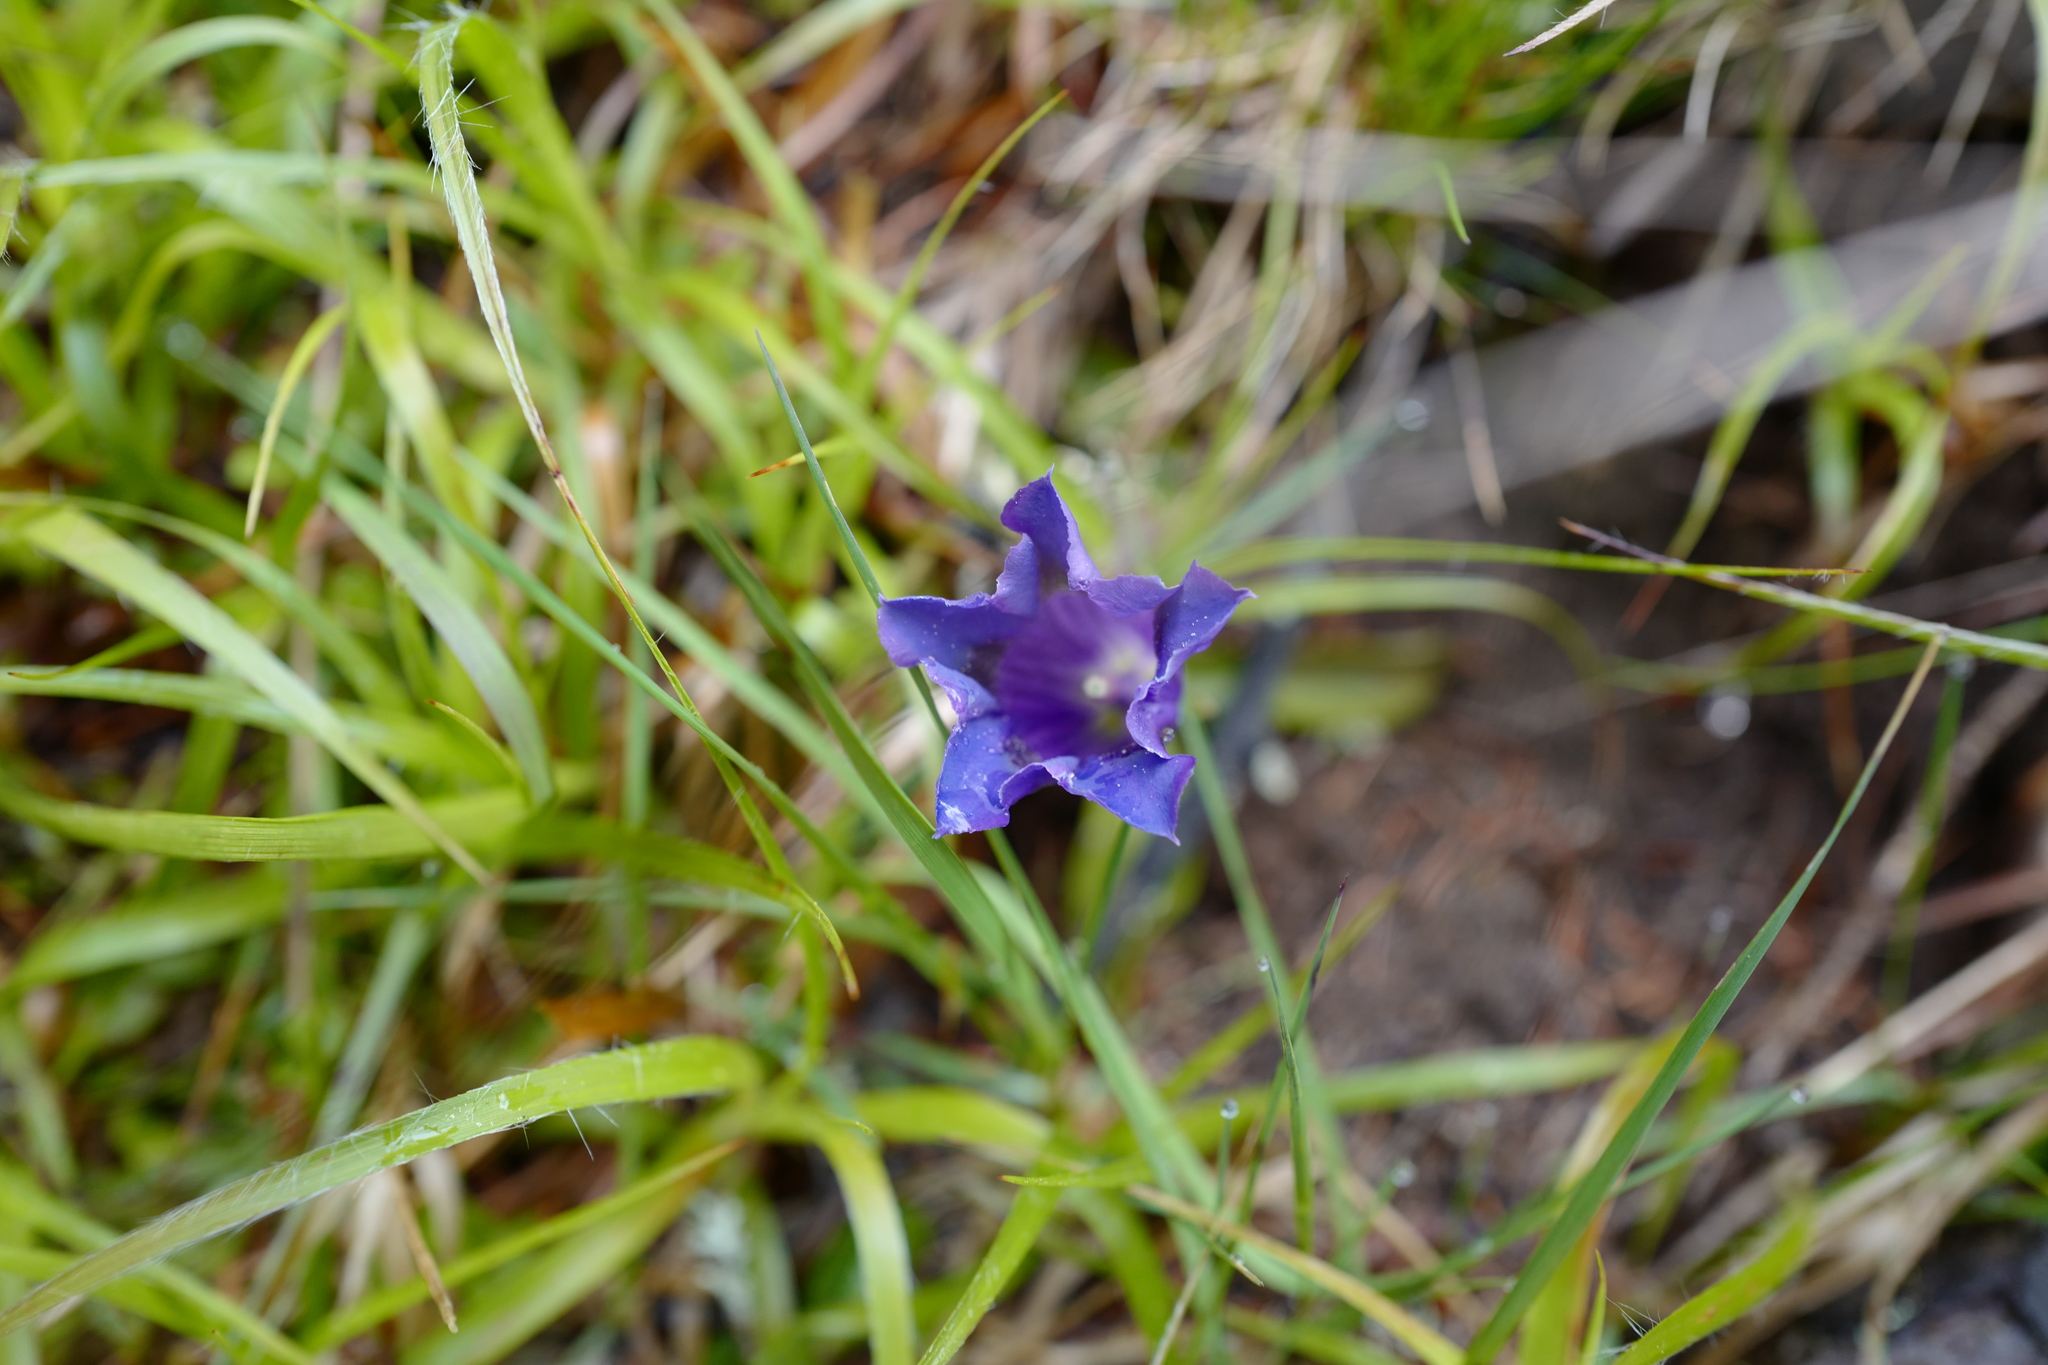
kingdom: Plantae
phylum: Tracheophyta
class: Magnoliopsida
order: Gentianales
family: Gentianaceae
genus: Gentiana
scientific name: Gentiana acaulis
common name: Trumpet gentian
